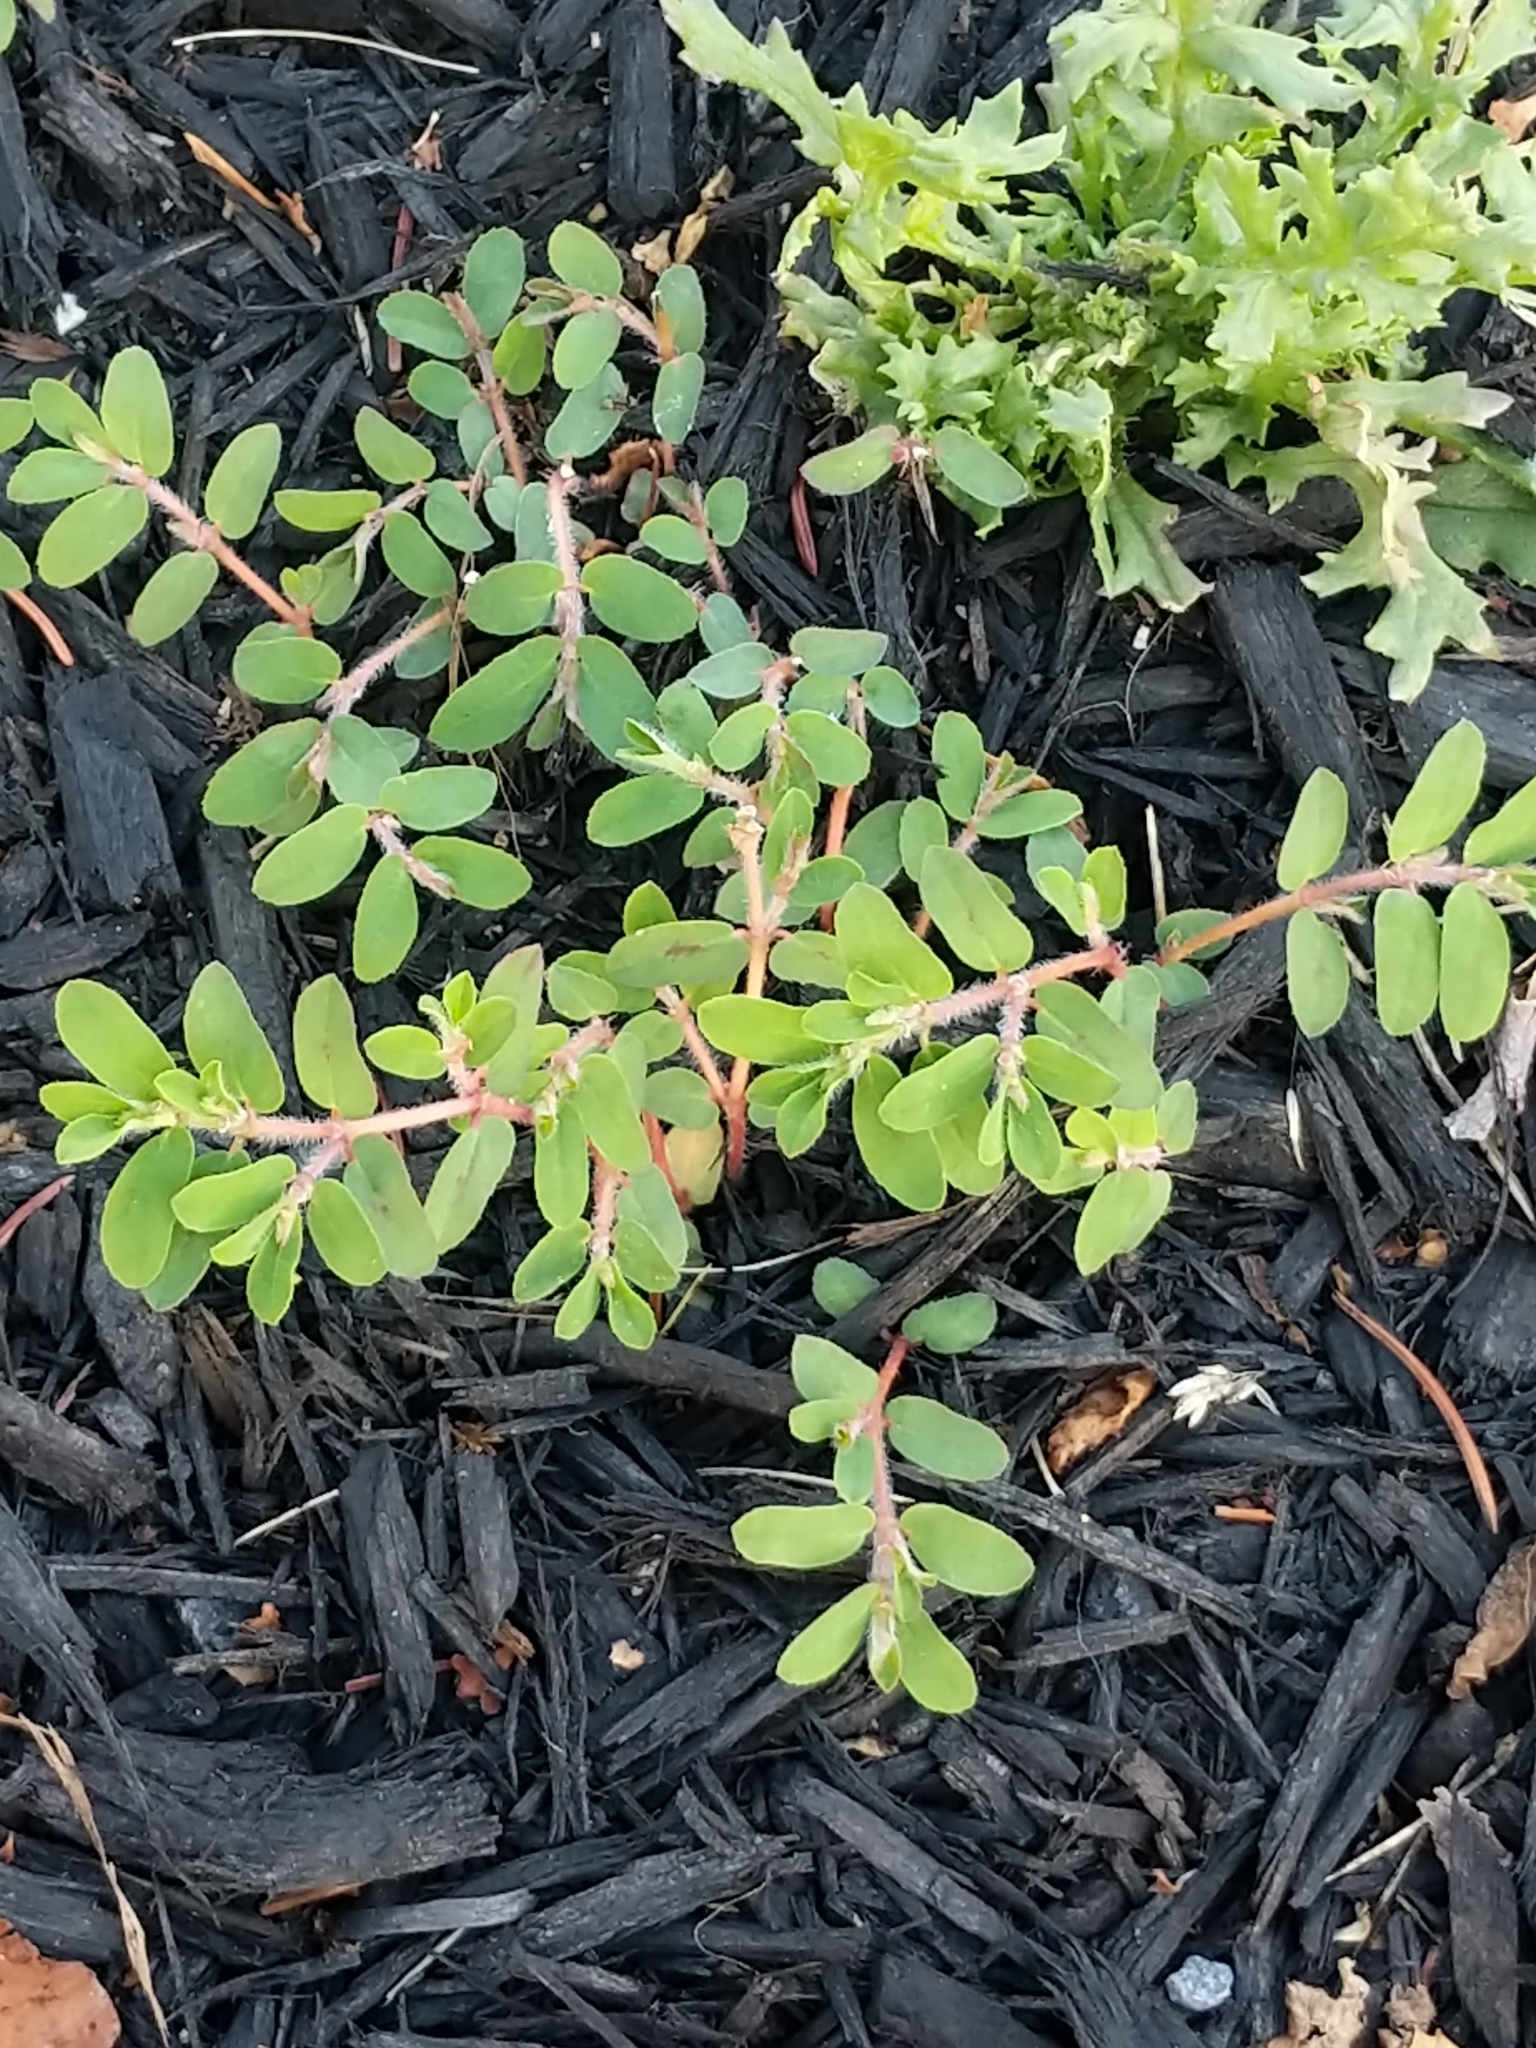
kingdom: Plantae
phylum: Tracheophyta
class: Magnoliopsida
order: Malpighiales
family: Euphorbiaceae
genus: Euphorbia
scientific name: Euphorbia maculata
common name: Spotted spurge
